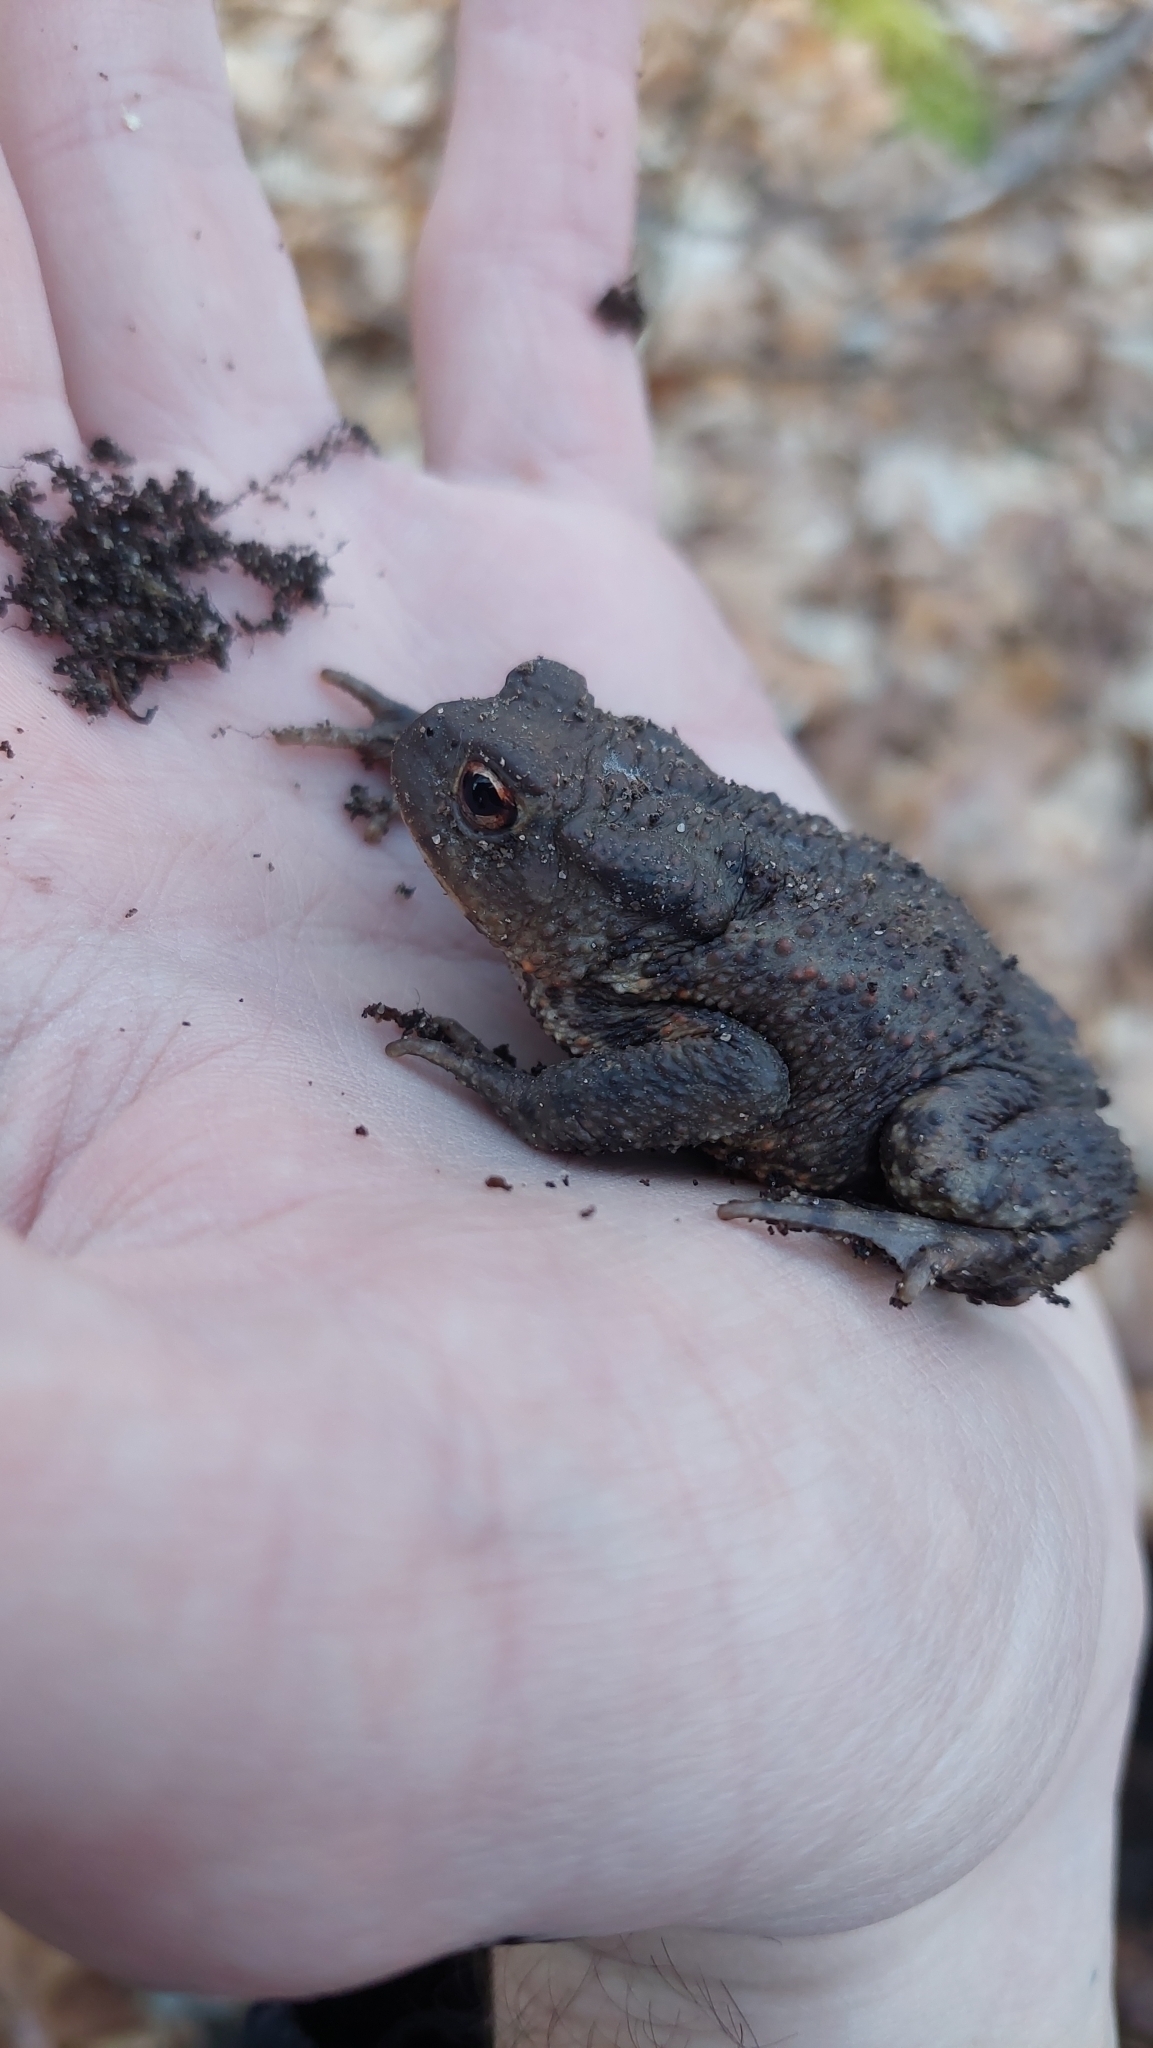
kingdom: Animalia
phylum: Chordata
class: Amphibia
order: Anura
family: Bufonidae
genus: Bufo
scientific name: Bufo bufo
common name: Common toad
